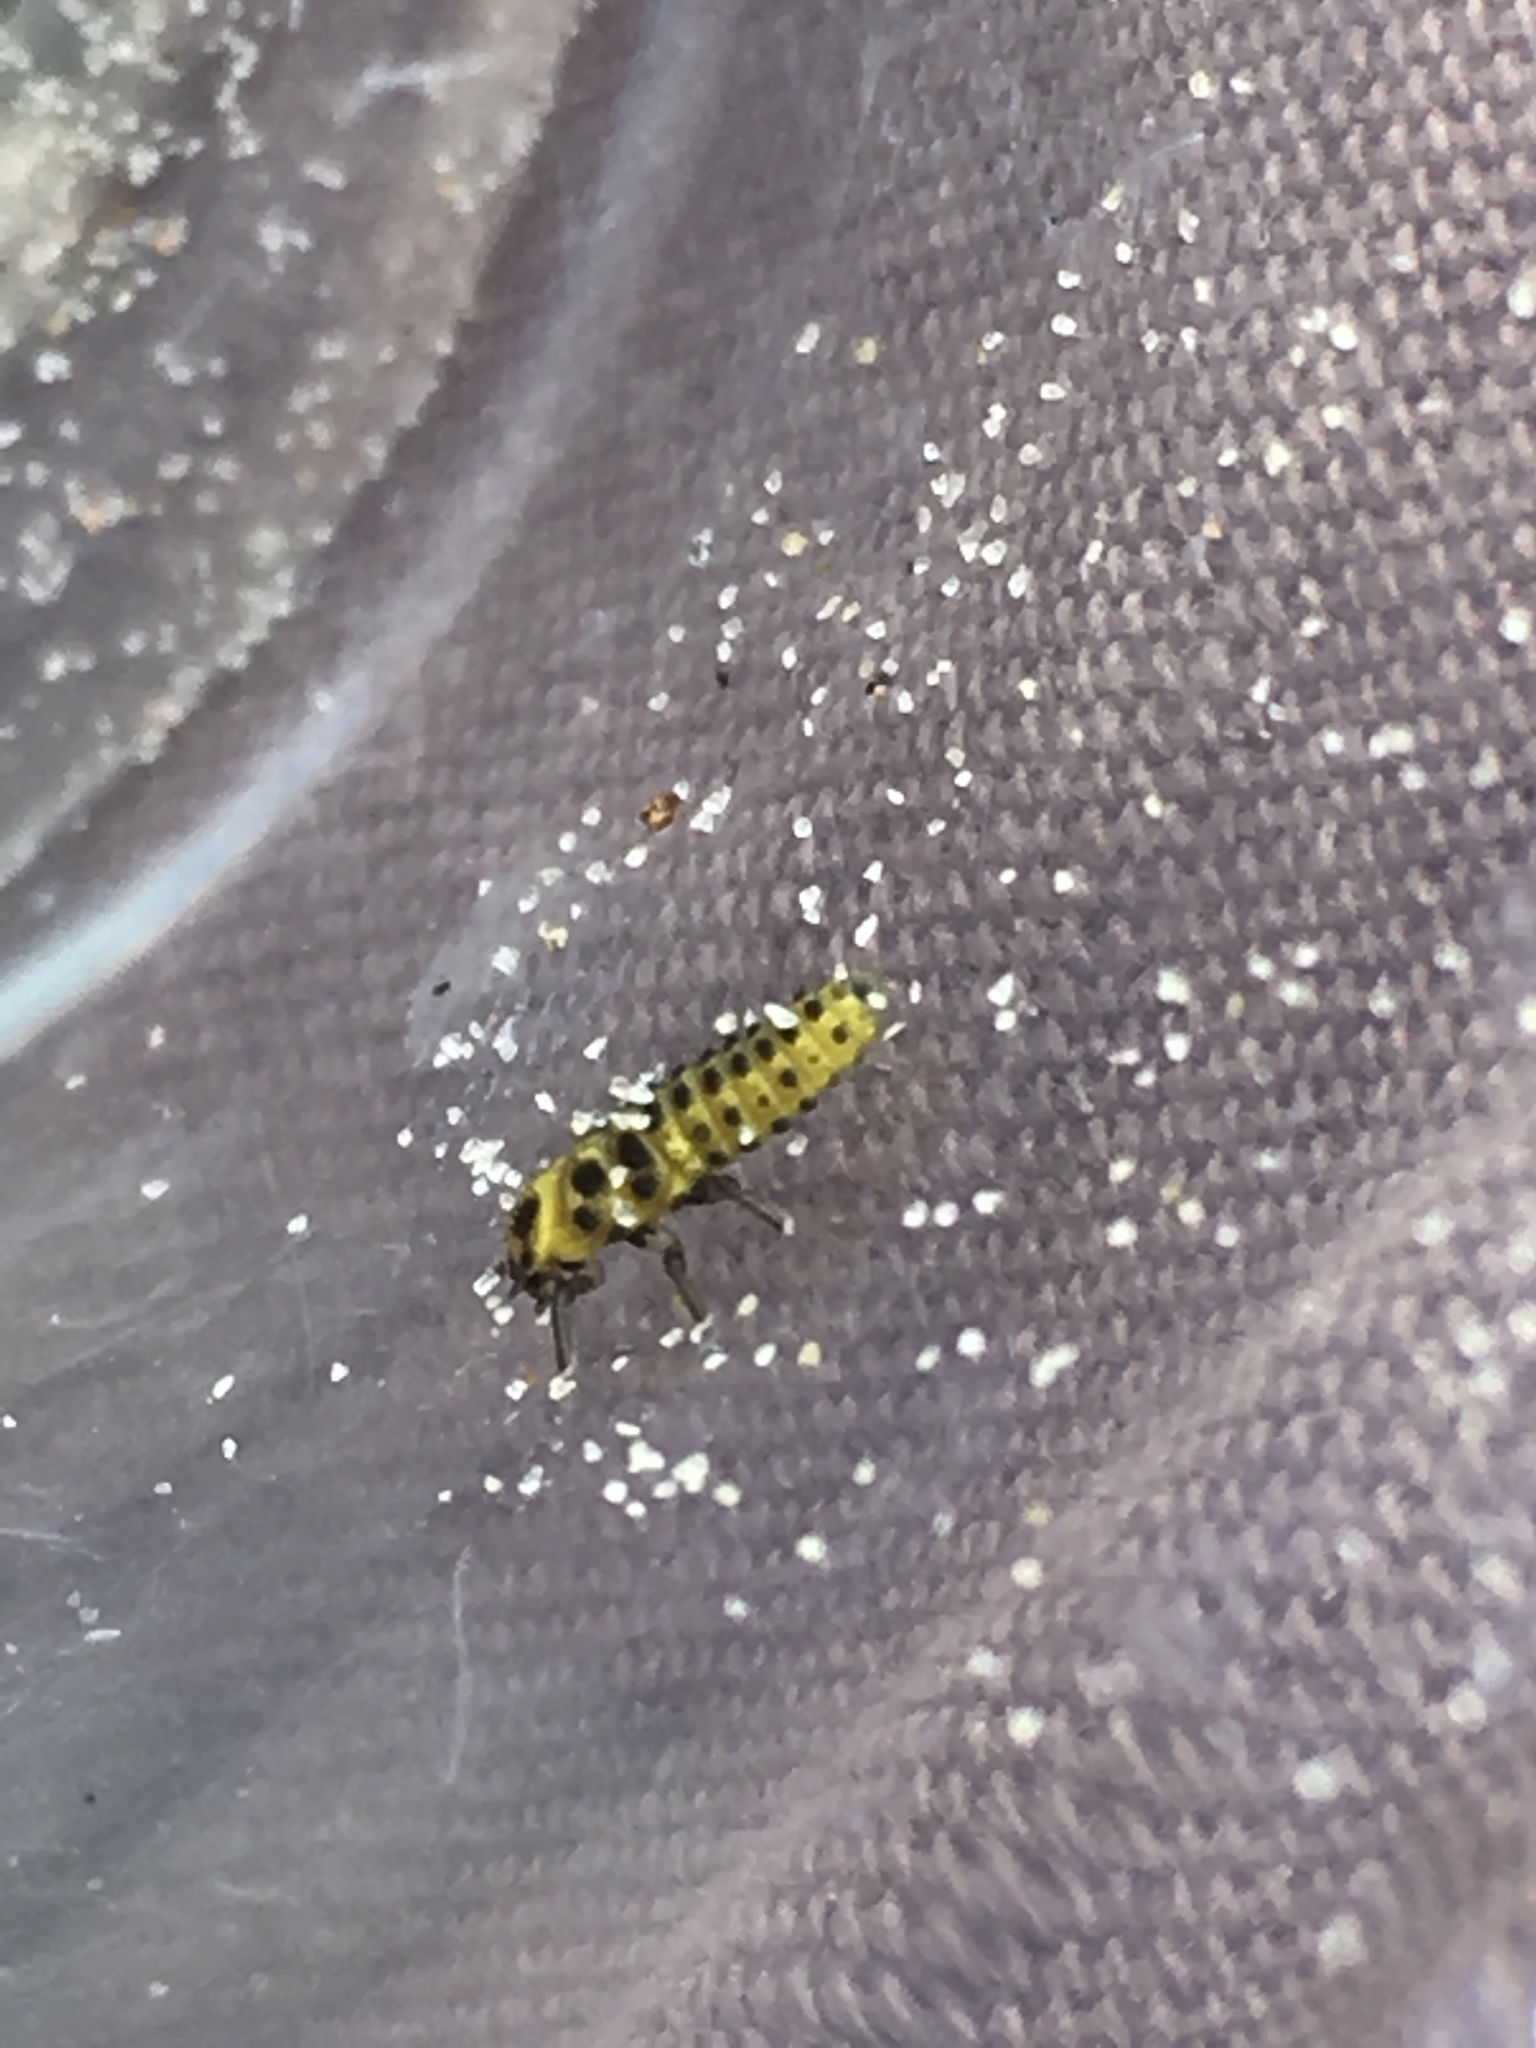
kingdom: Animalia
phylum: Arthropoda
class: Insecta
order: Coleoptera
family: Coccinellidae
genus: Psyllobora
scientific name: Psyllobora vigintiduopunctata
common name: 22-spot ladybird
